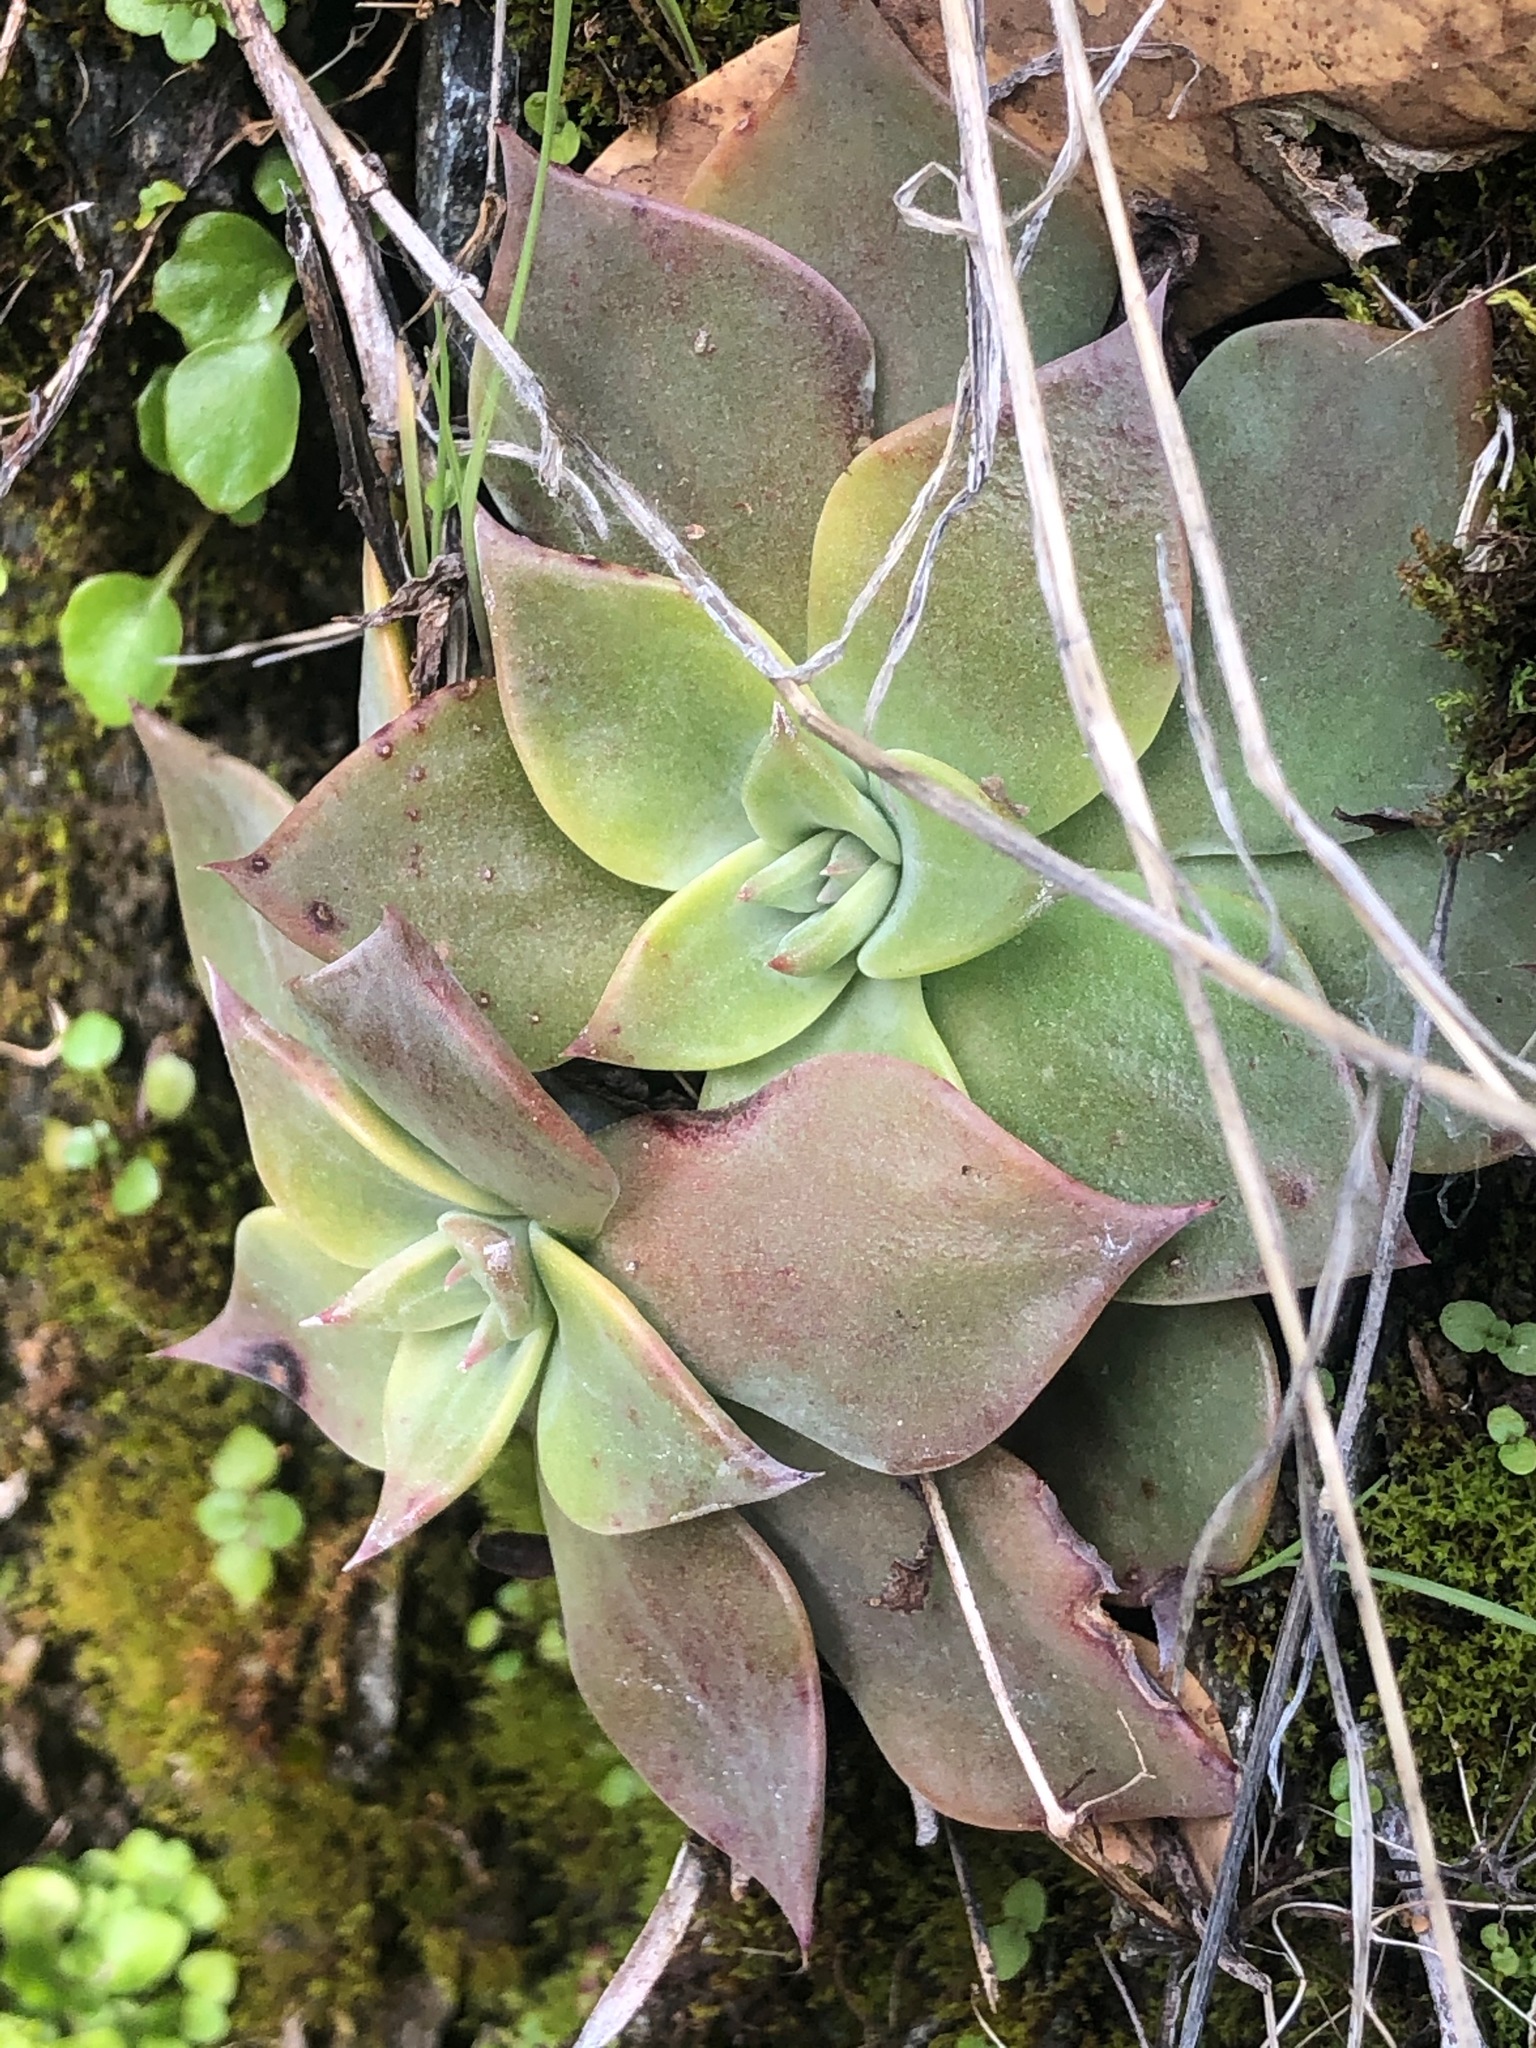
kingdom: Plantae
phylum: Tracheophyta
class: Magnoliopsida
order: Saxifragales
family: Crassulaceae
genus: Dudleya
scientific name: Dudleya cymosa
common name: Canyon dudleya
